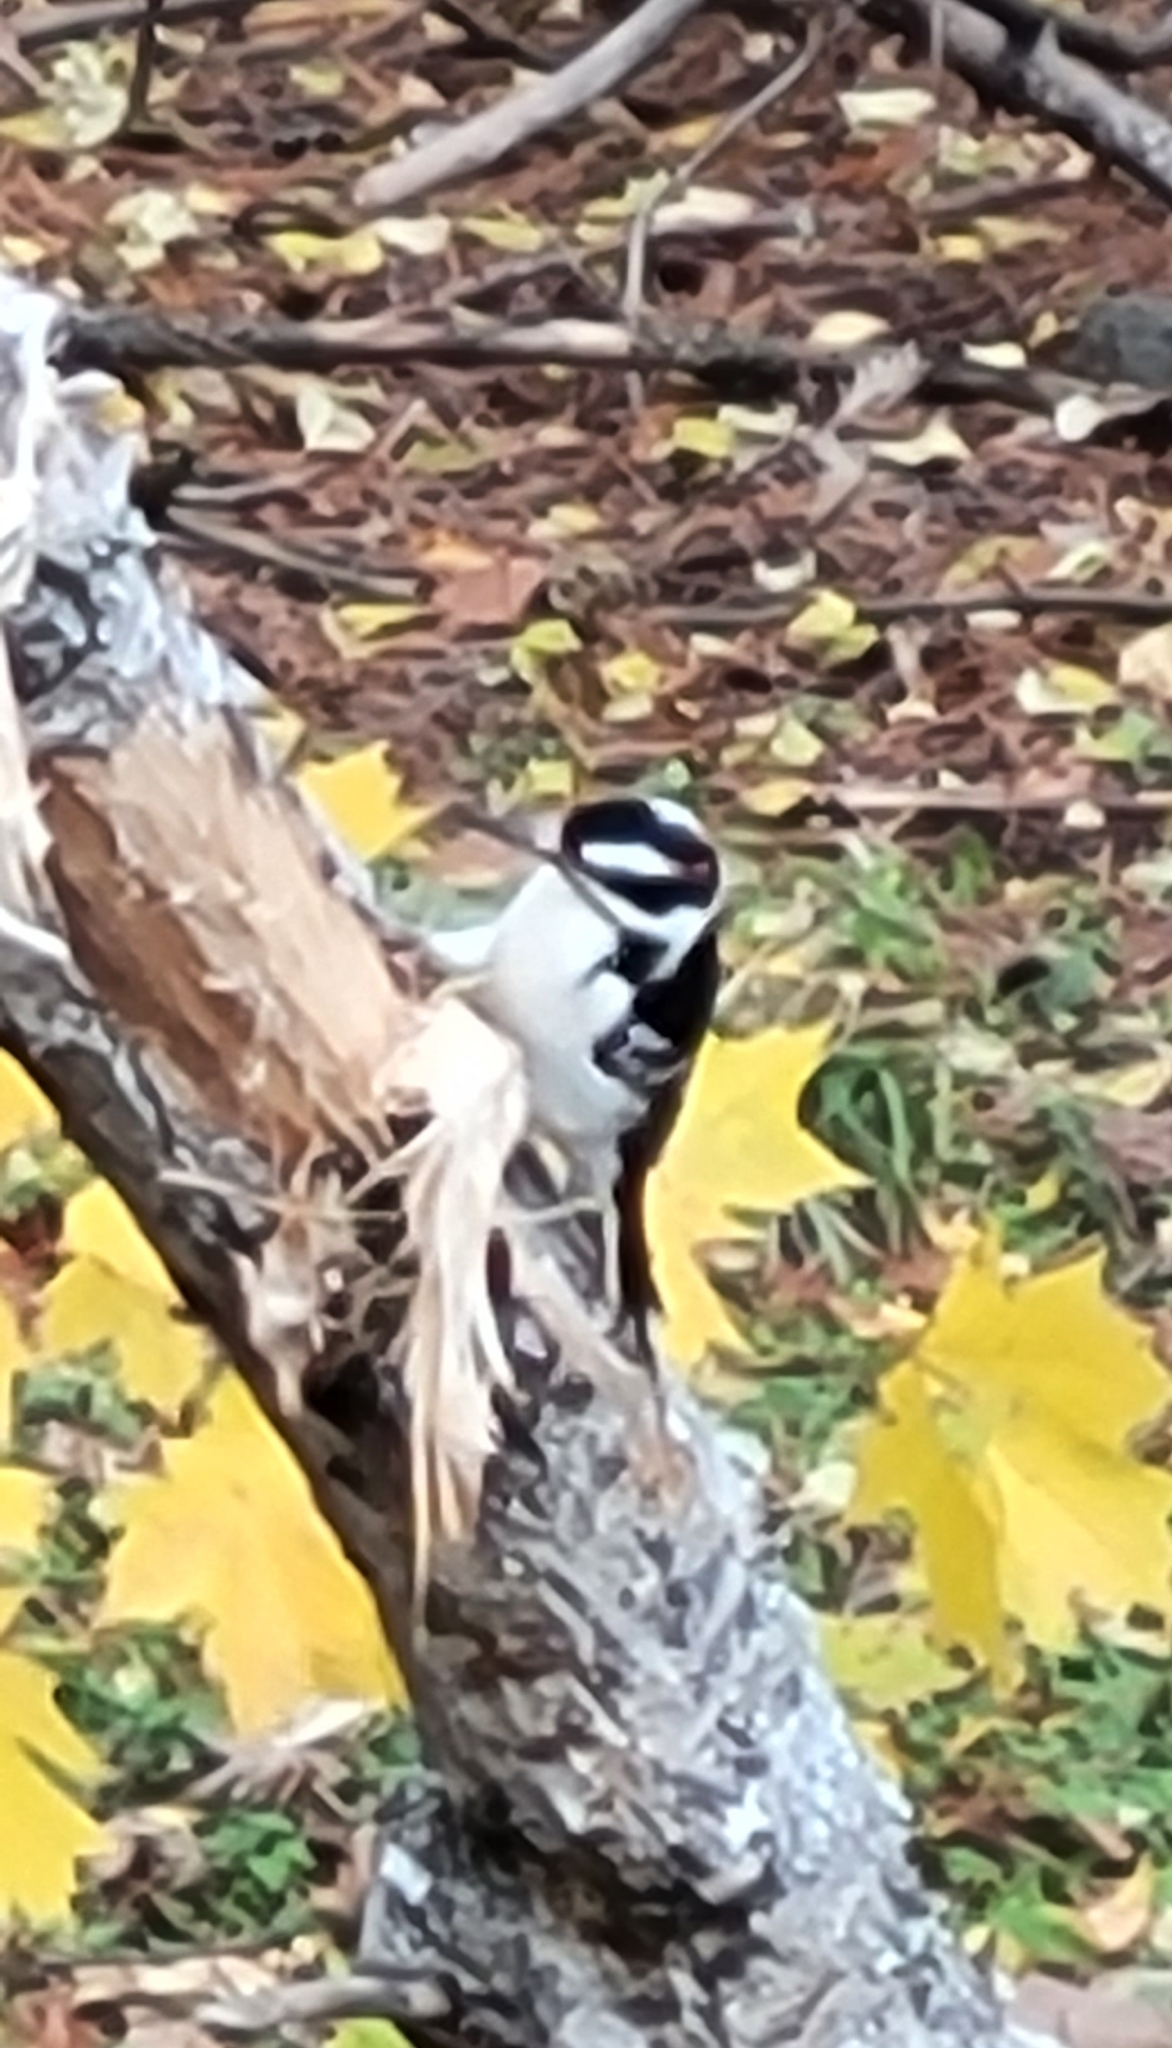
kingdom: Animalia
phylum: Chordata
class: Aves
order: Piciformes
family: Picidae
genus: Leuconotopicus
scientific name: Leuconotopicus villosus
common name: Hairy woodpecker
